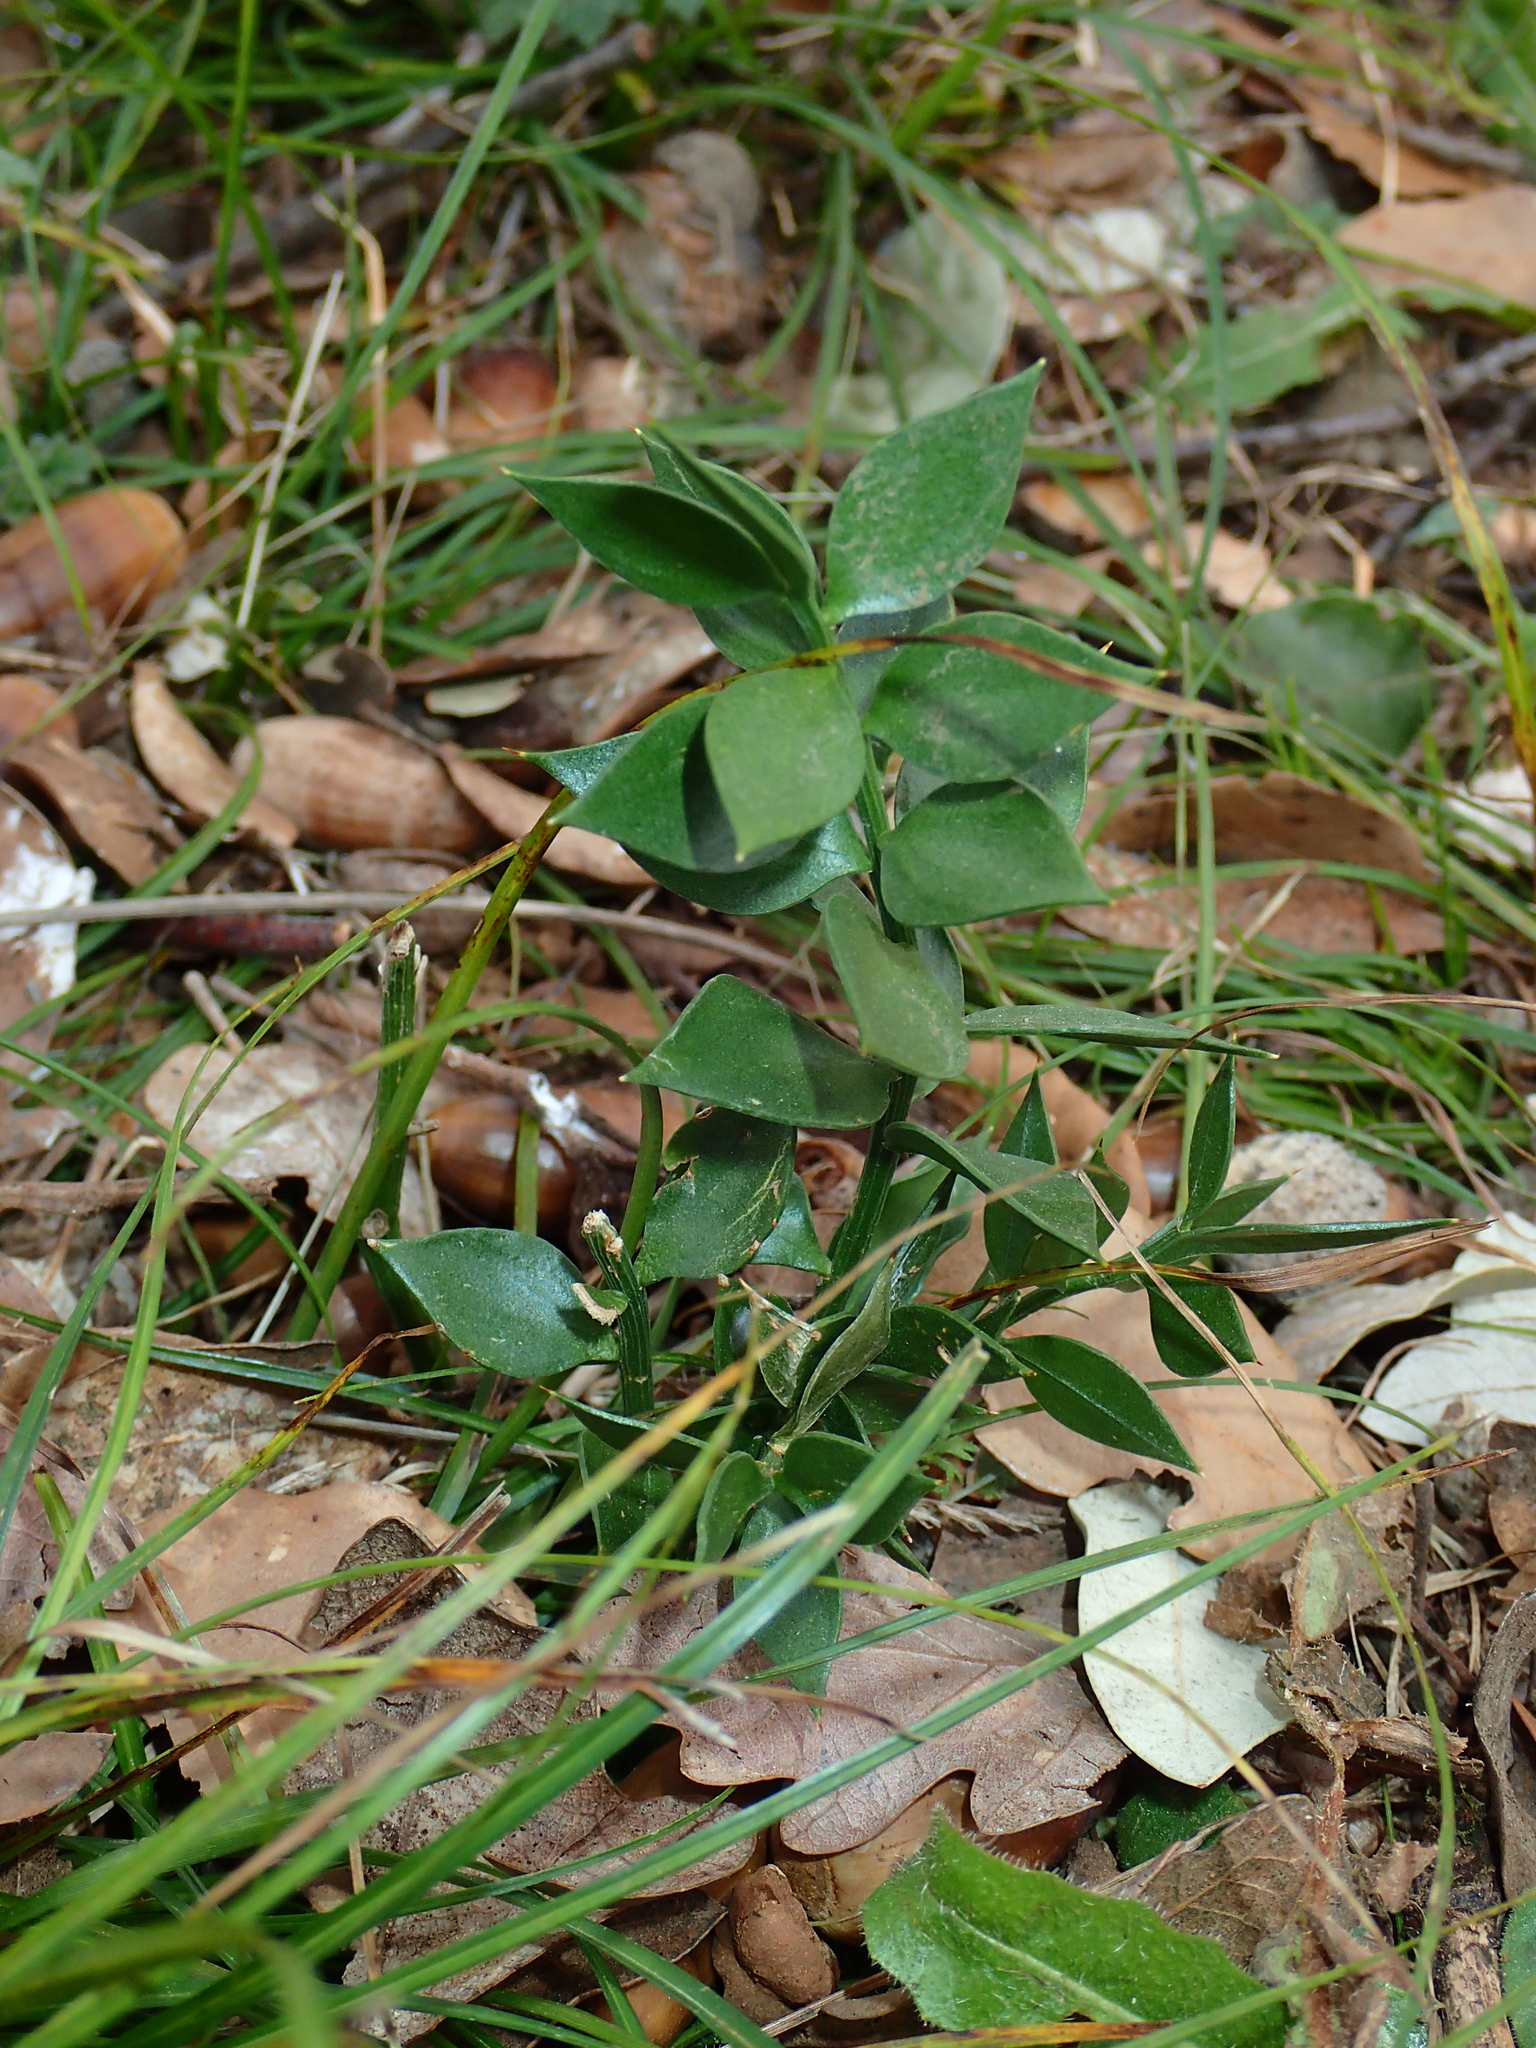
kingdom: Plantae
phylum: Tracheophyta
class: Liliopsida
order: Asparagales
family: Asparagaceae
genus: Ruscus
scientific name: Ruscus aculeatus
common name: Butcher's-broom
